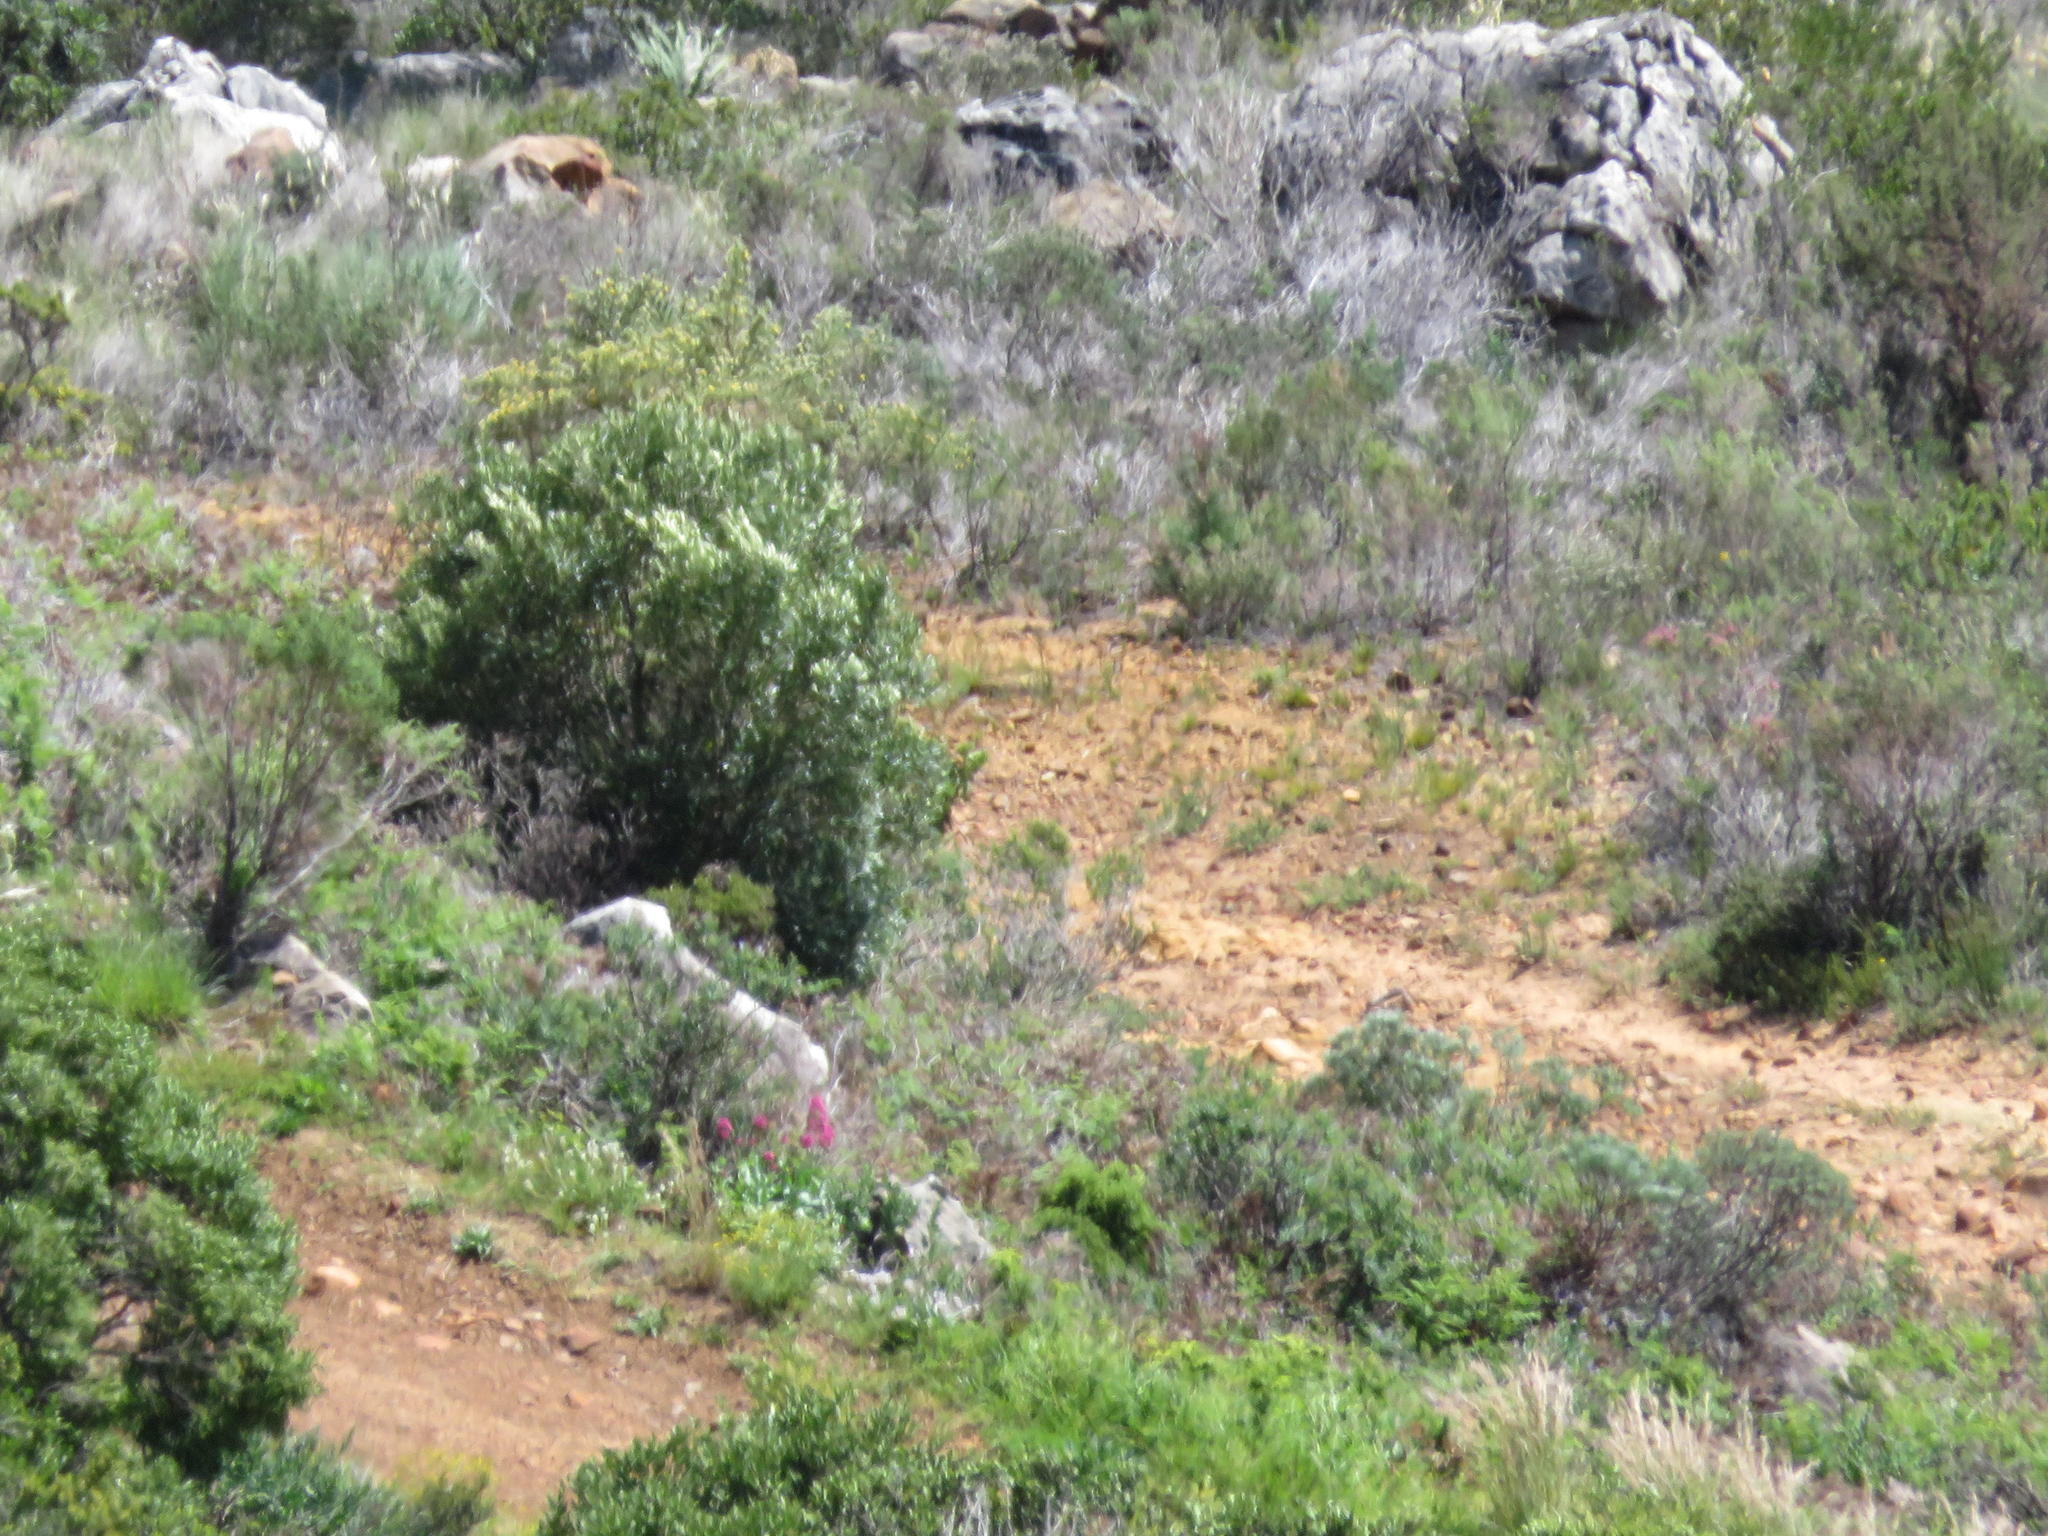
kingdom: Plantae
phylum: Tracheophyta
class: Magnoliopsida
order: Dipsacales
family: Caprifoliaceae
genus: Centranthus
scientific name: Centranthus ruber
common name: Red valerian
